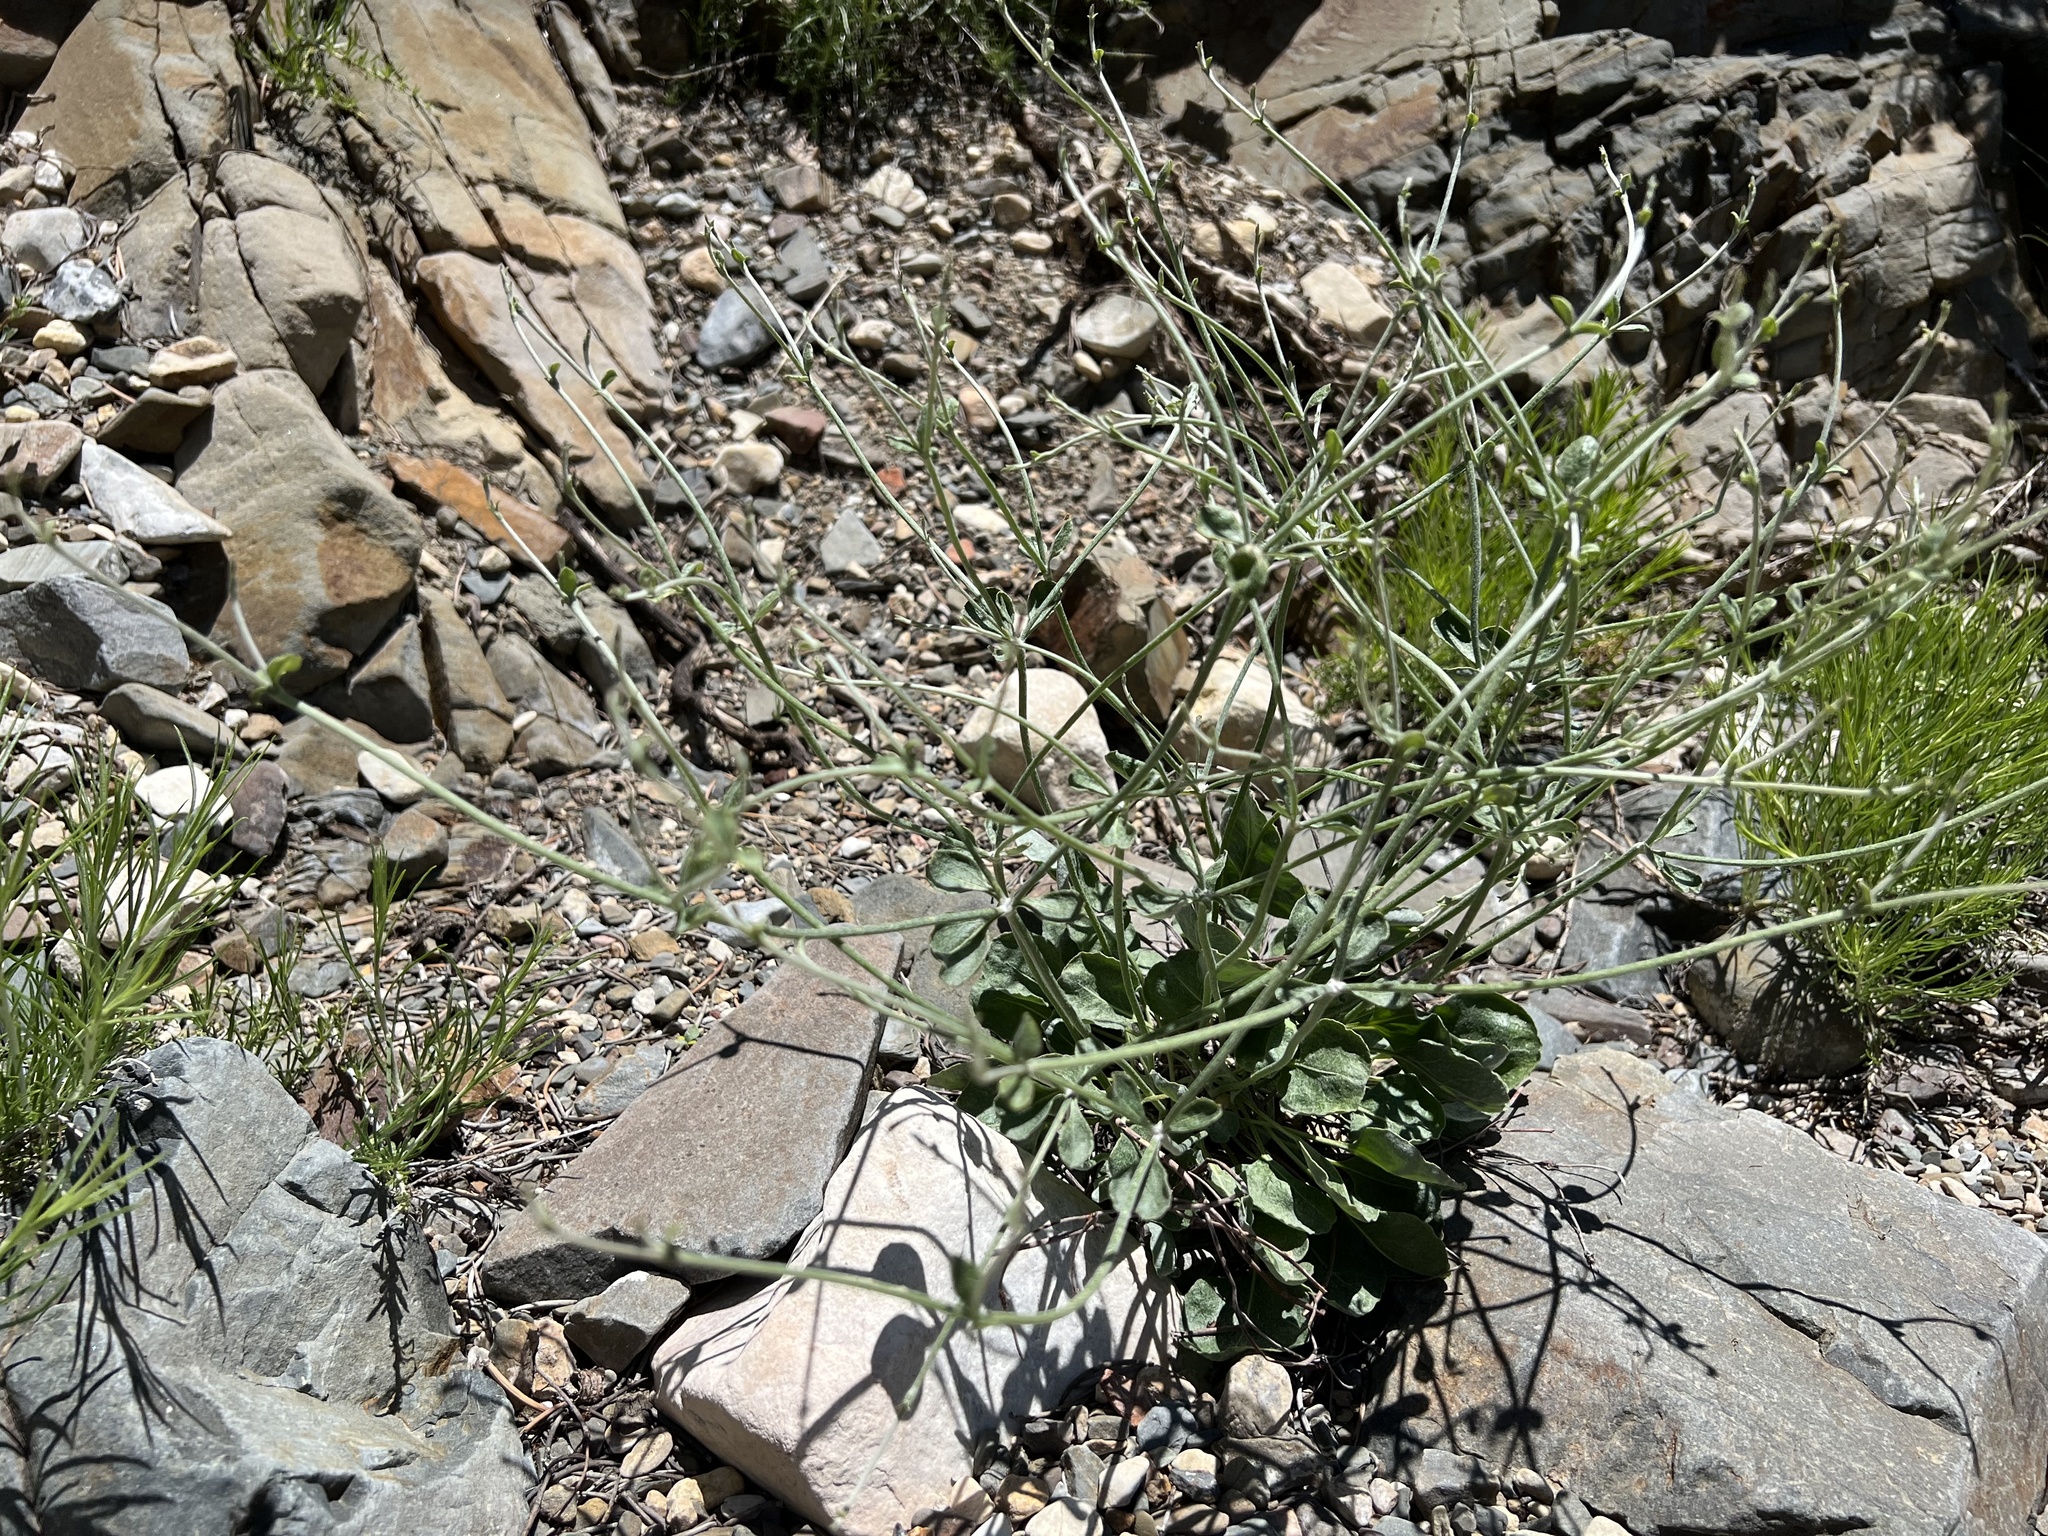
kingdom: Plantae
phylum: Tracheophyta
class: Magnoliopsida
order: Caryophyllales
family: Polygonaceae
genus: Eriogonum
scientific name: Eriogonum panamintense
